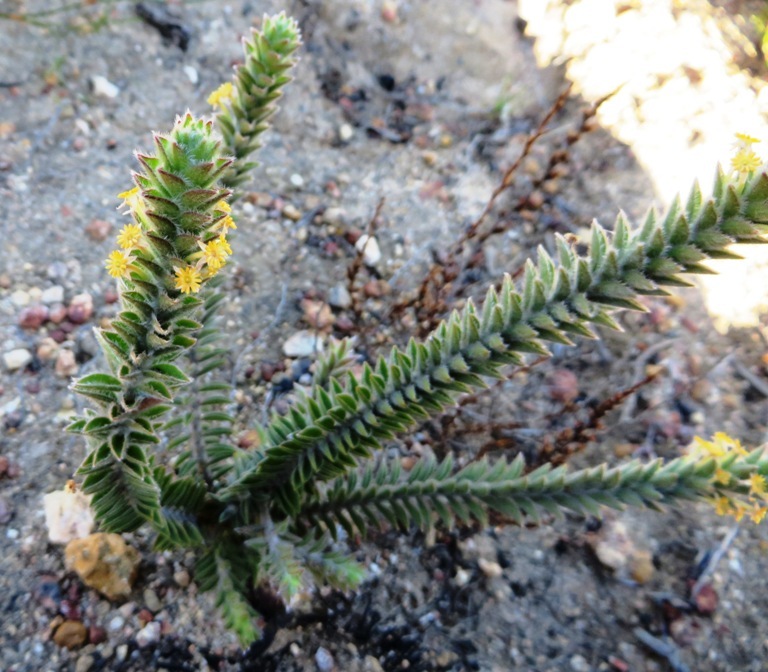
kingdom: Plantae
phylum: Tracheophyta
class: Magnoliopsida
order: Malvales
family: Thymelaeaceae
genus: Struthiola
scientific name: Struthiola tomentosa
